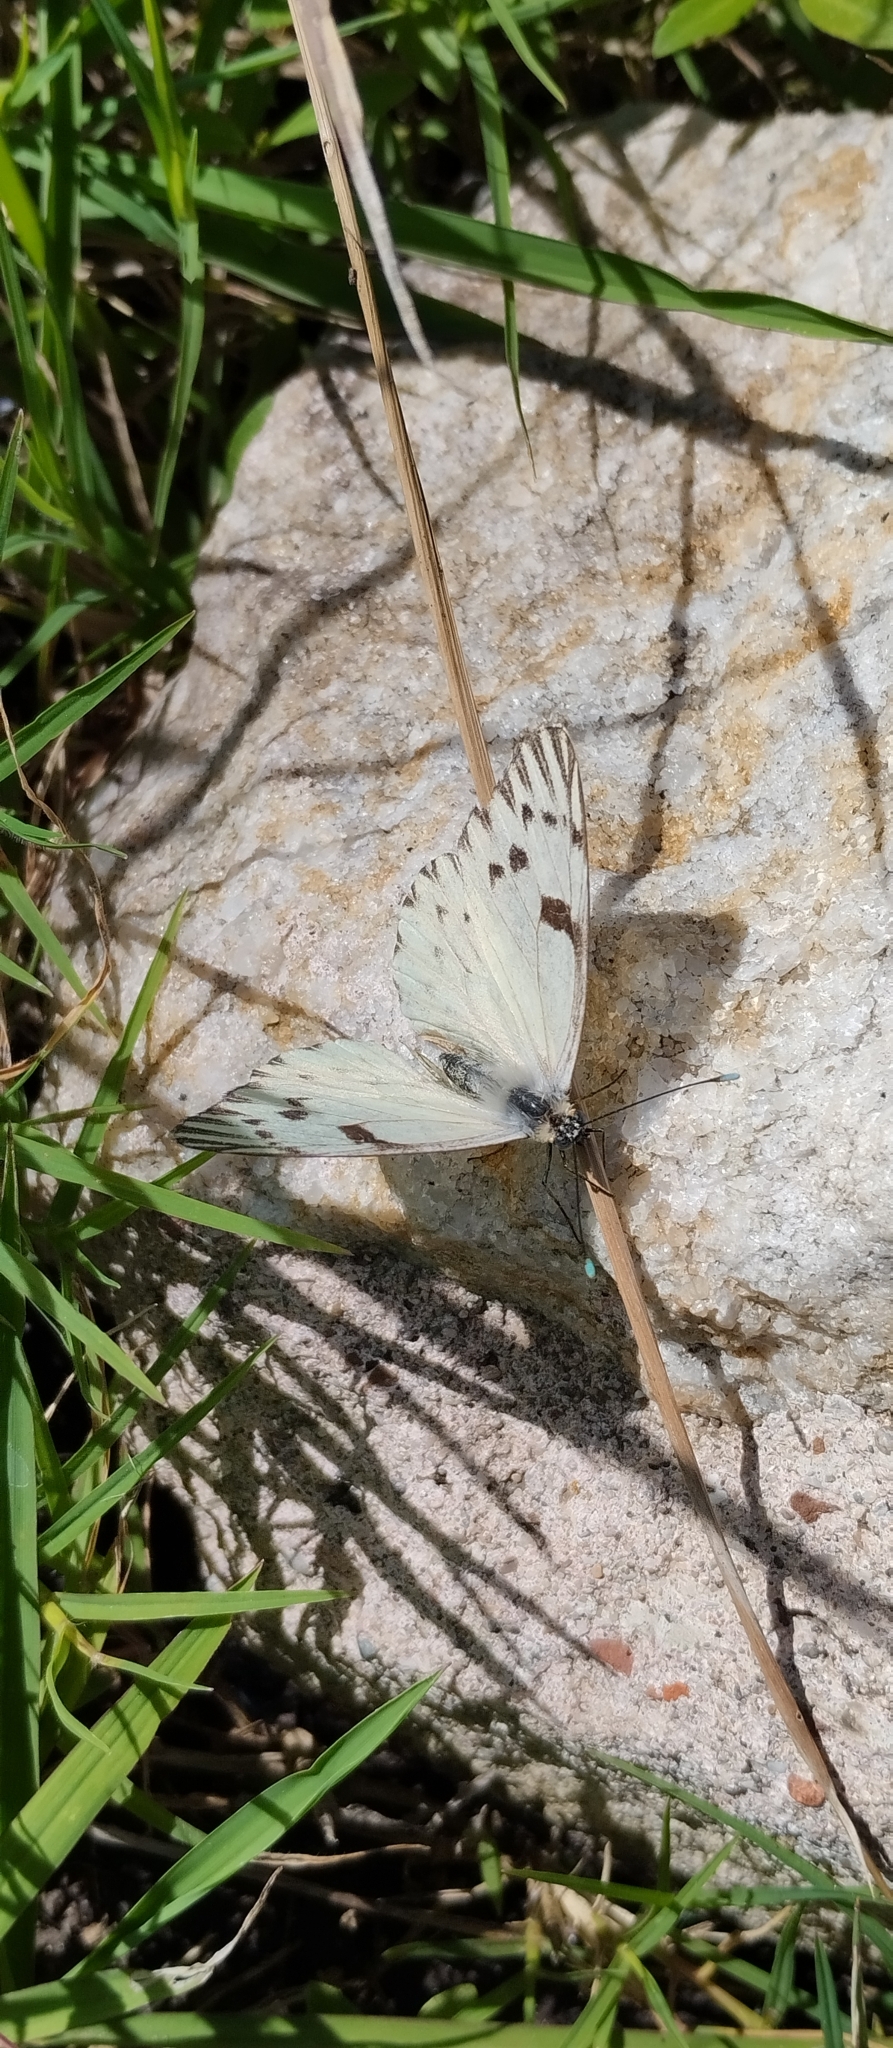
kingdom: Animalia
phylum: Arthropoda
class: Insecta
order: Lepidoptera
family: Pieridae
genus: Tatochila
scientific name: Tatochila autodice
